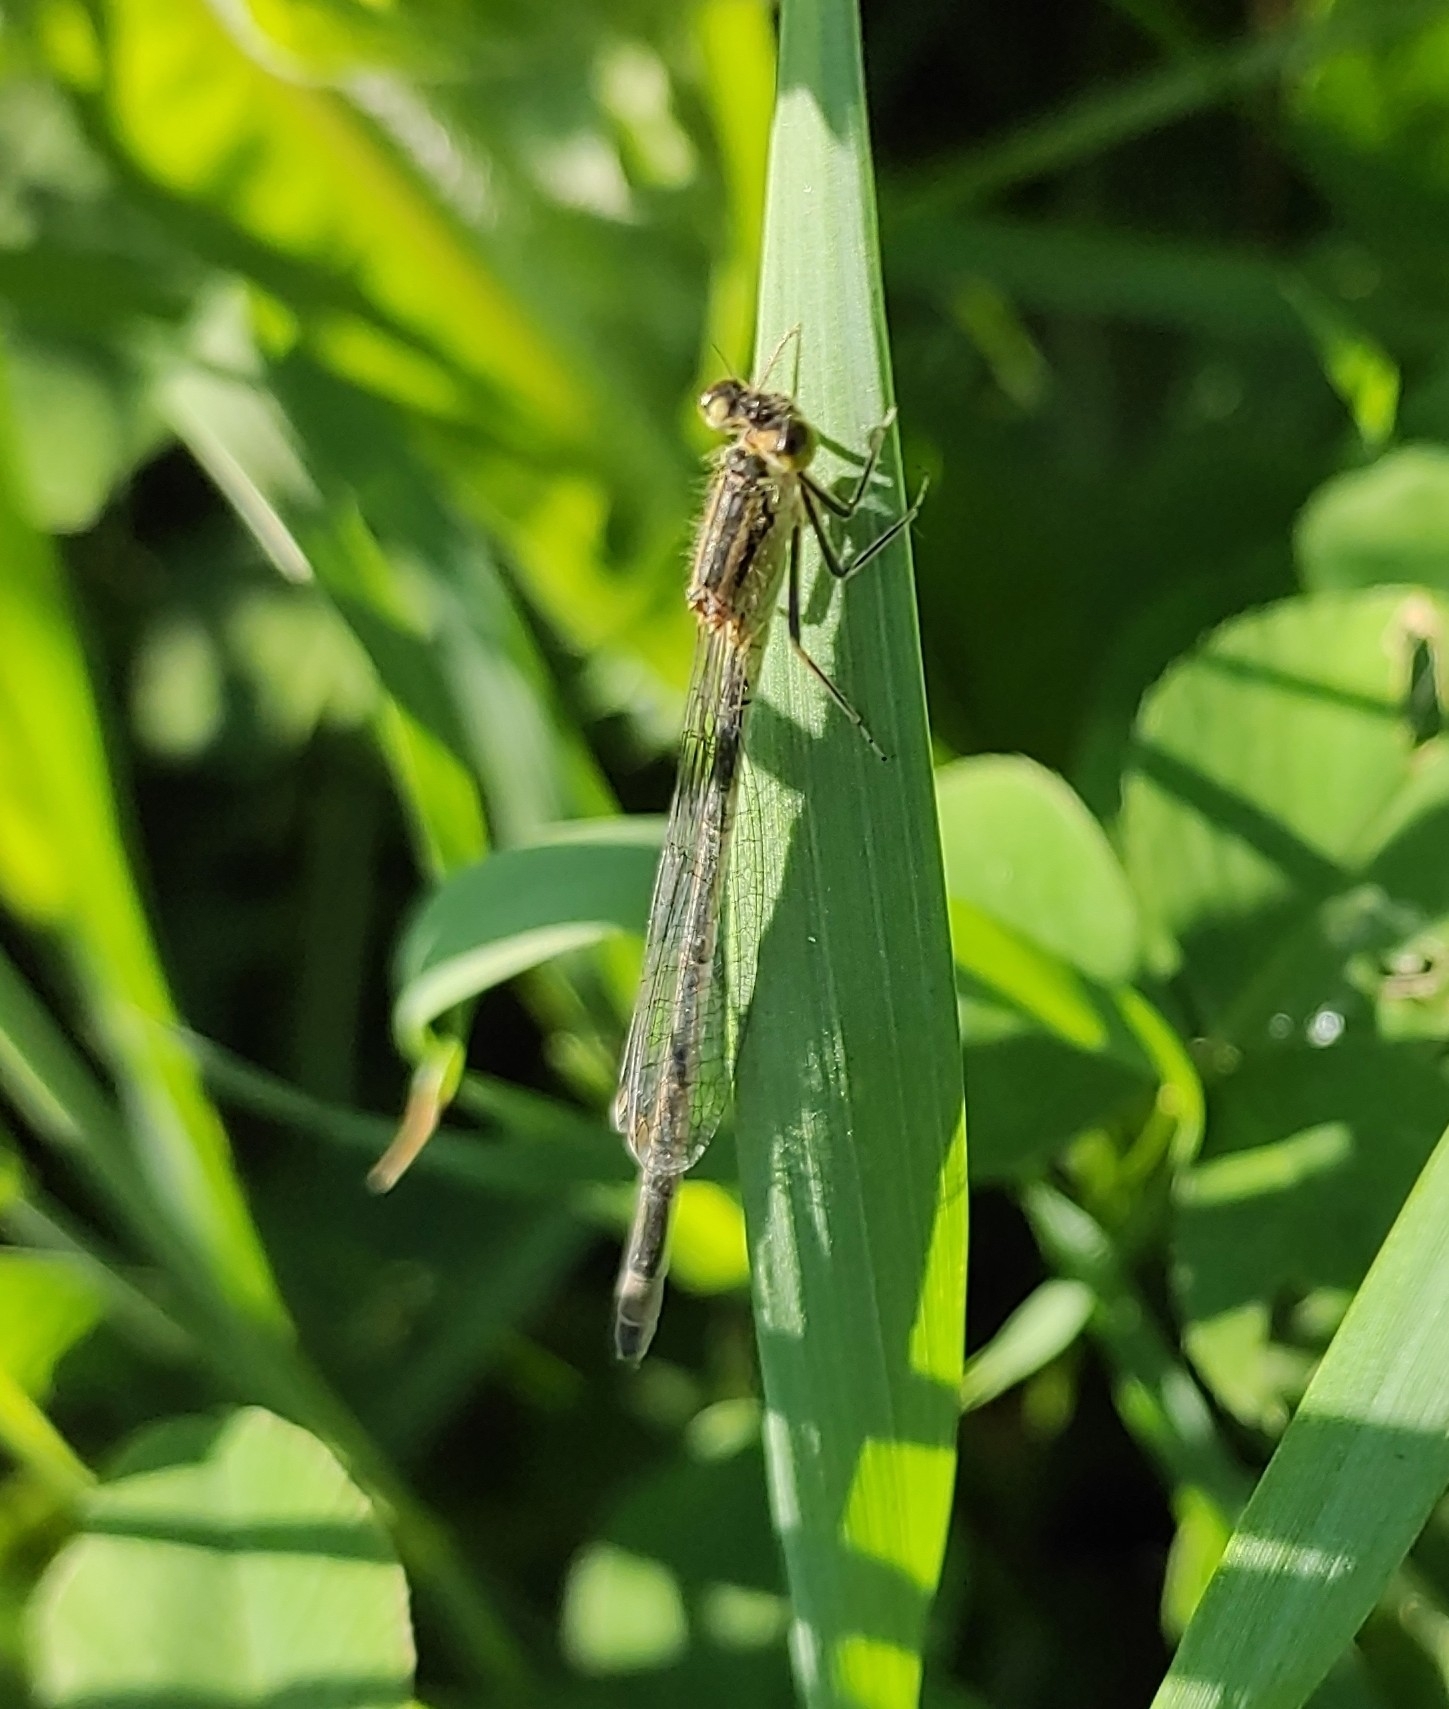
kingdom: Animalia
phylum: Arthropoda
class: Insecta
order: Odonata
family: Coenagrionidae
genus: Ischnura
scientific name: Ischnura elegans
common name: Blue-tailed damselfly
